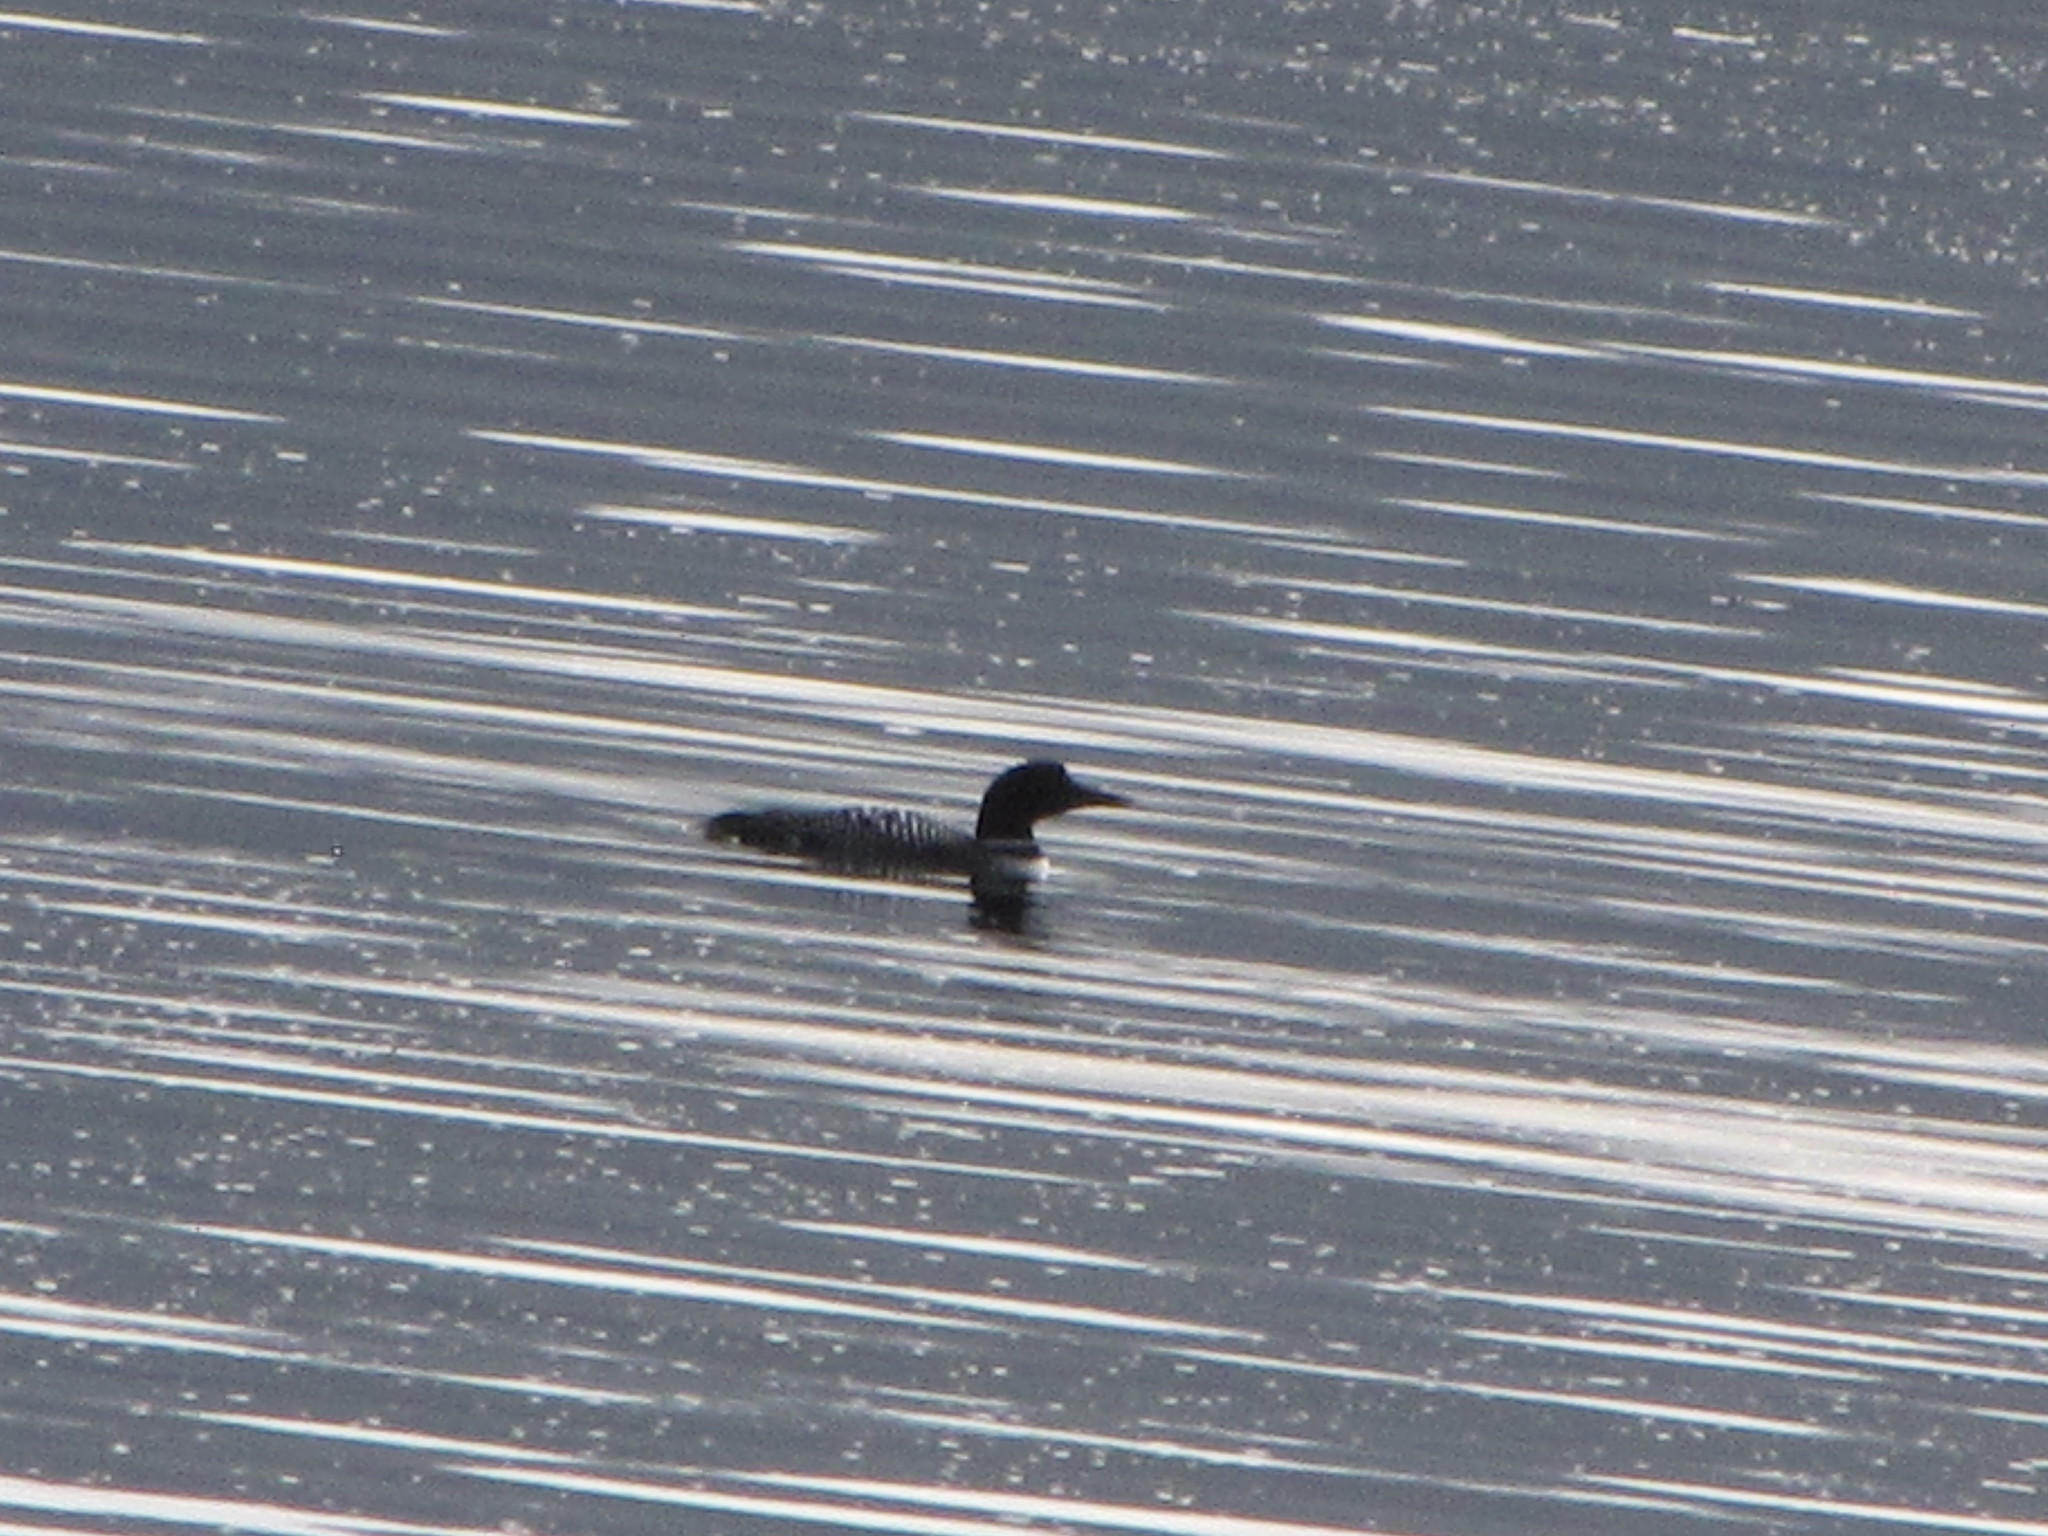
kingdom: Animalia
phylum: Chordata
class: Aves
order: Gaviiformes
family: Gaviidae
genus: Gavia
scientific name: Gavia immer
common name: Common loon
